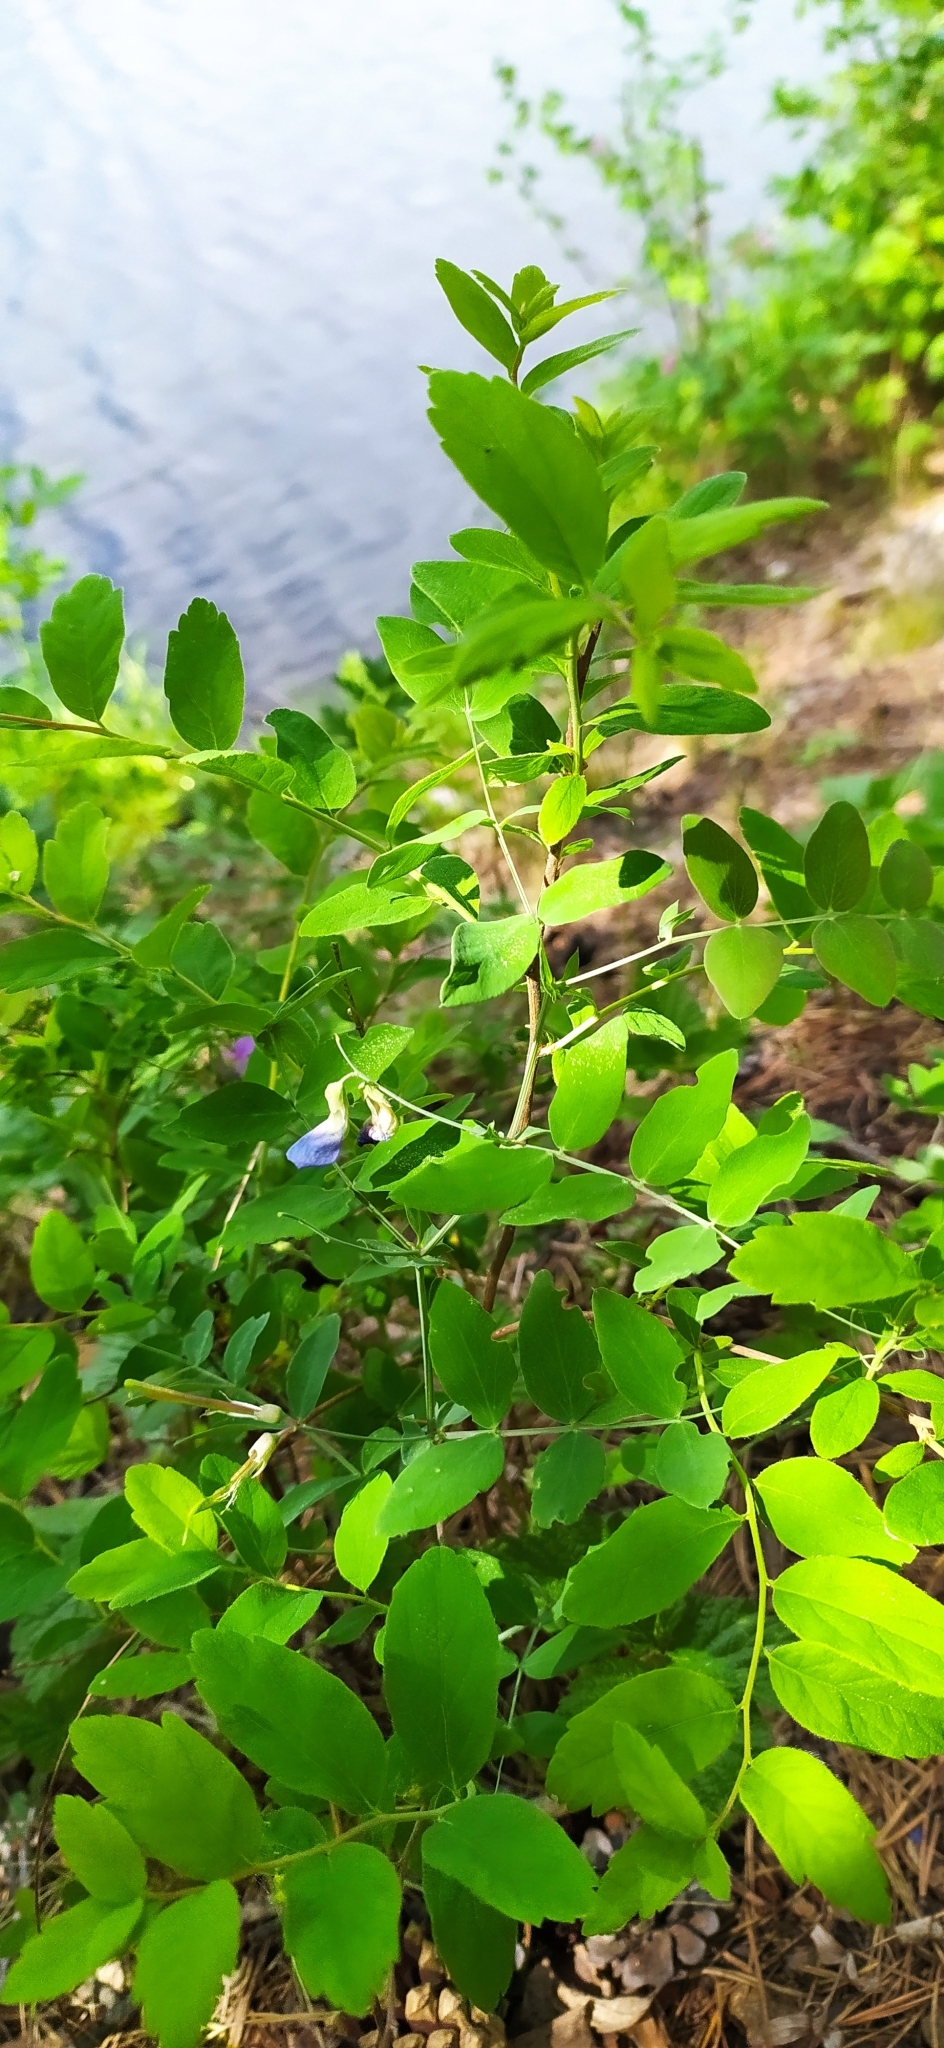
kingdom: Plantae
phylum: Tracheophyta
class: Magnoliopsida
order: Fabales
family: Fabaceae
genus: Lathyrus
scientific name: Lathyrus humilis
